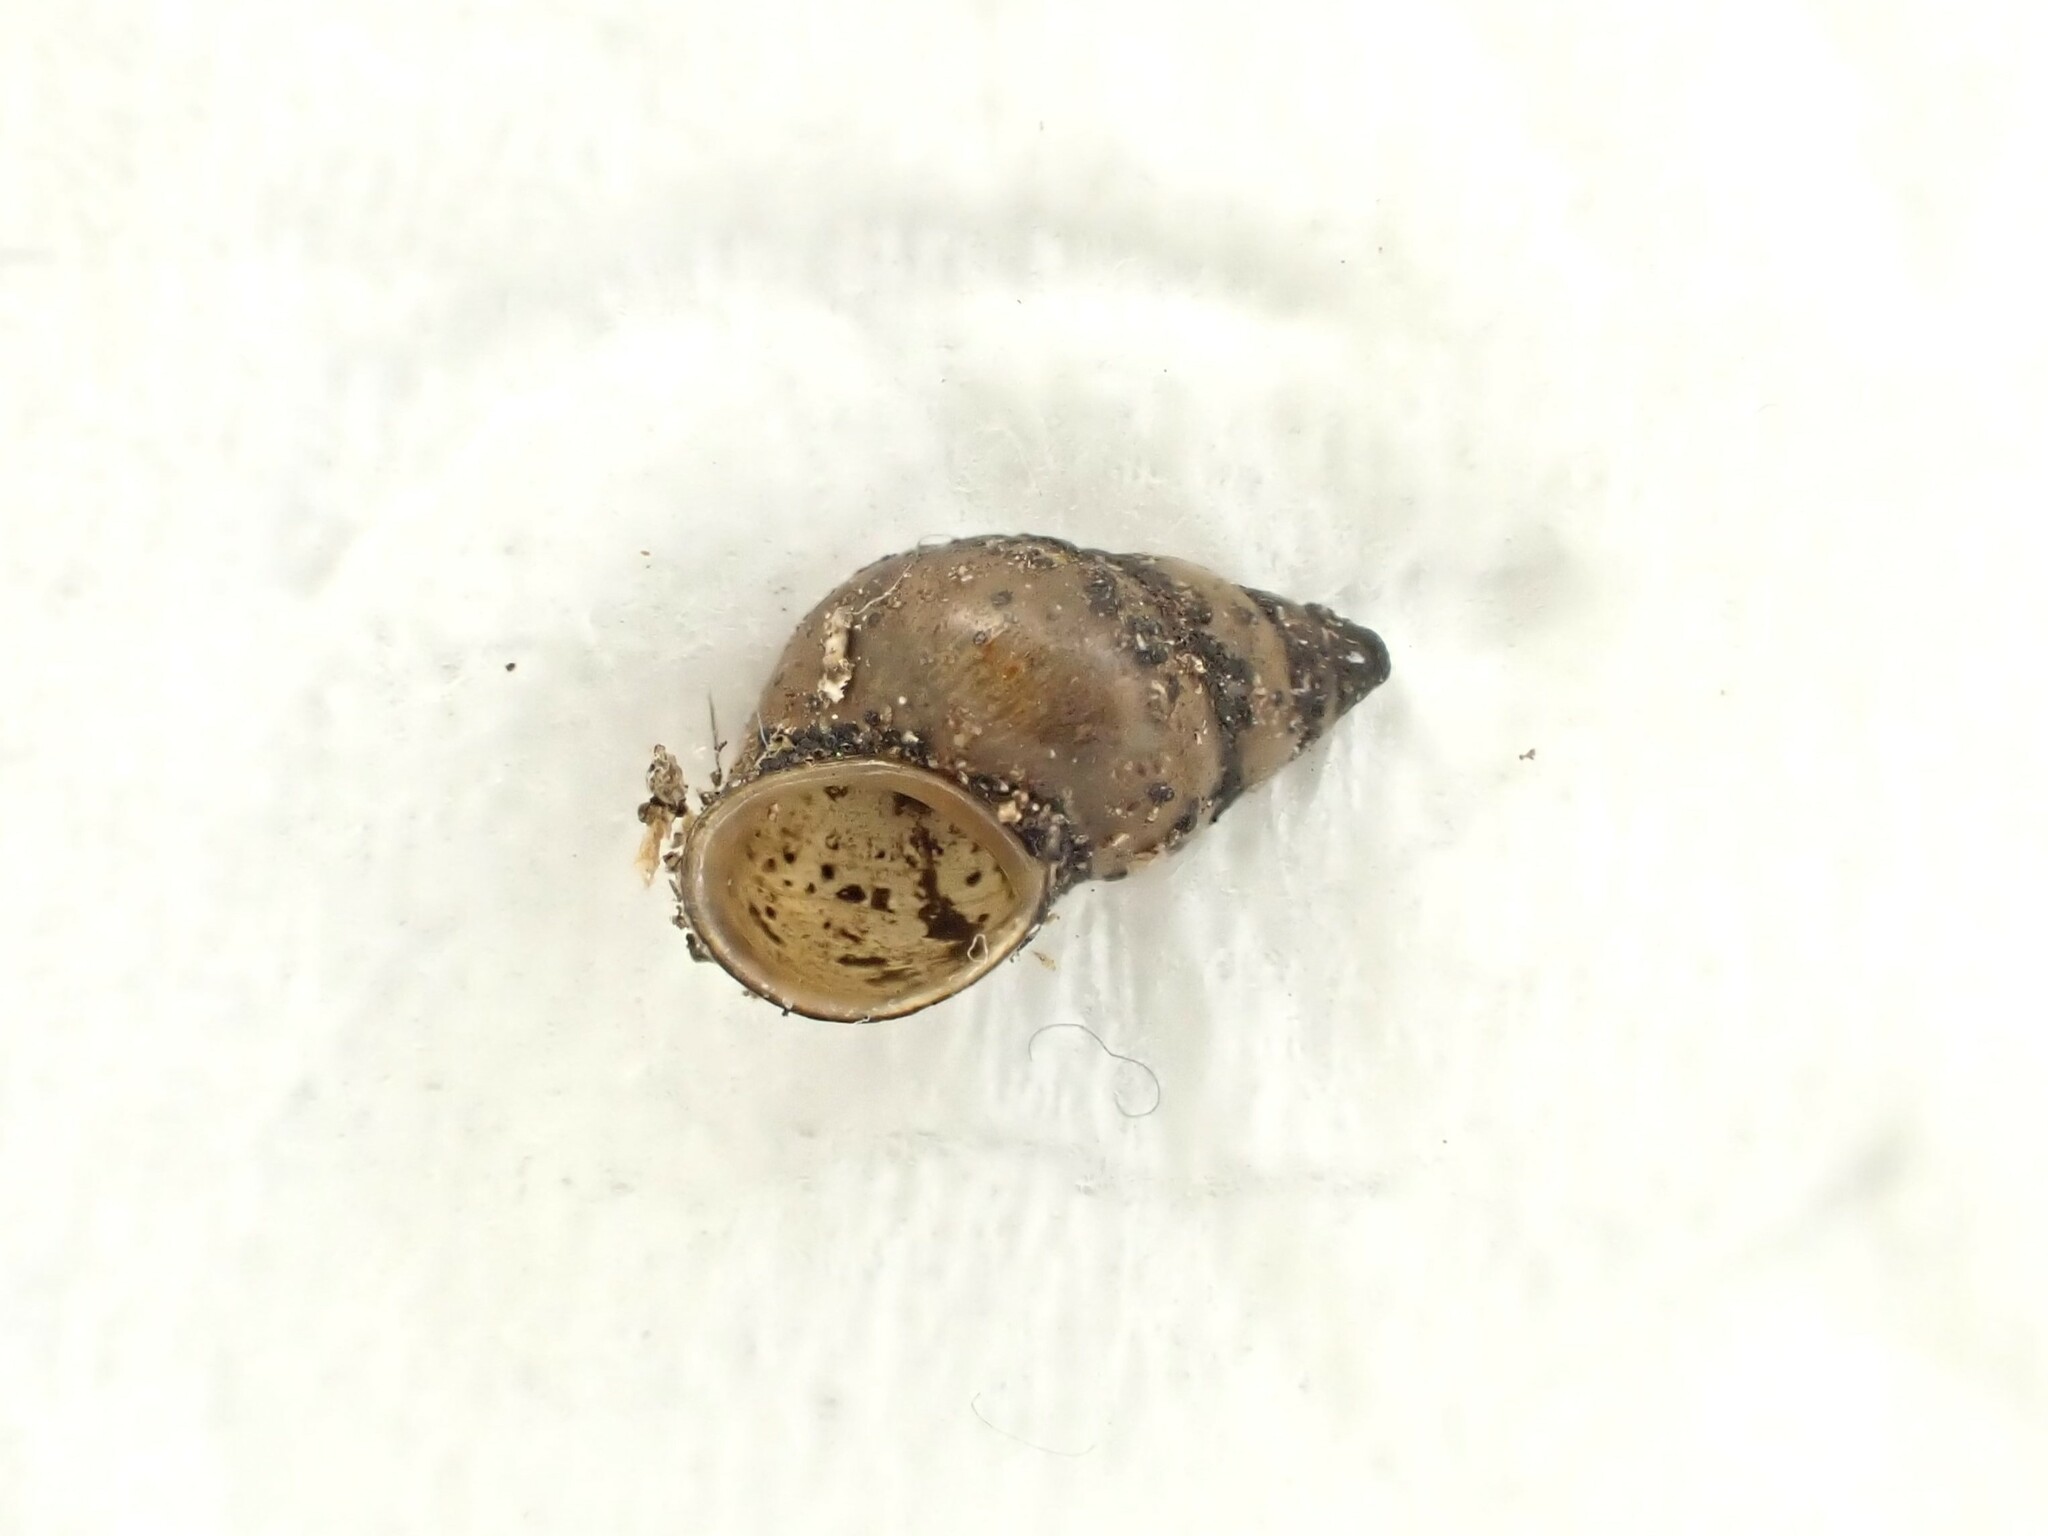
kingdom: Animalia
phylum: Mollusca
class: Gastropoda
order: Littorinimorpha
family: Tateidae
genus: Potamopyrgus
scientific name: Potamopyrgus antipodarum
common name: Jenkins' spire snail
